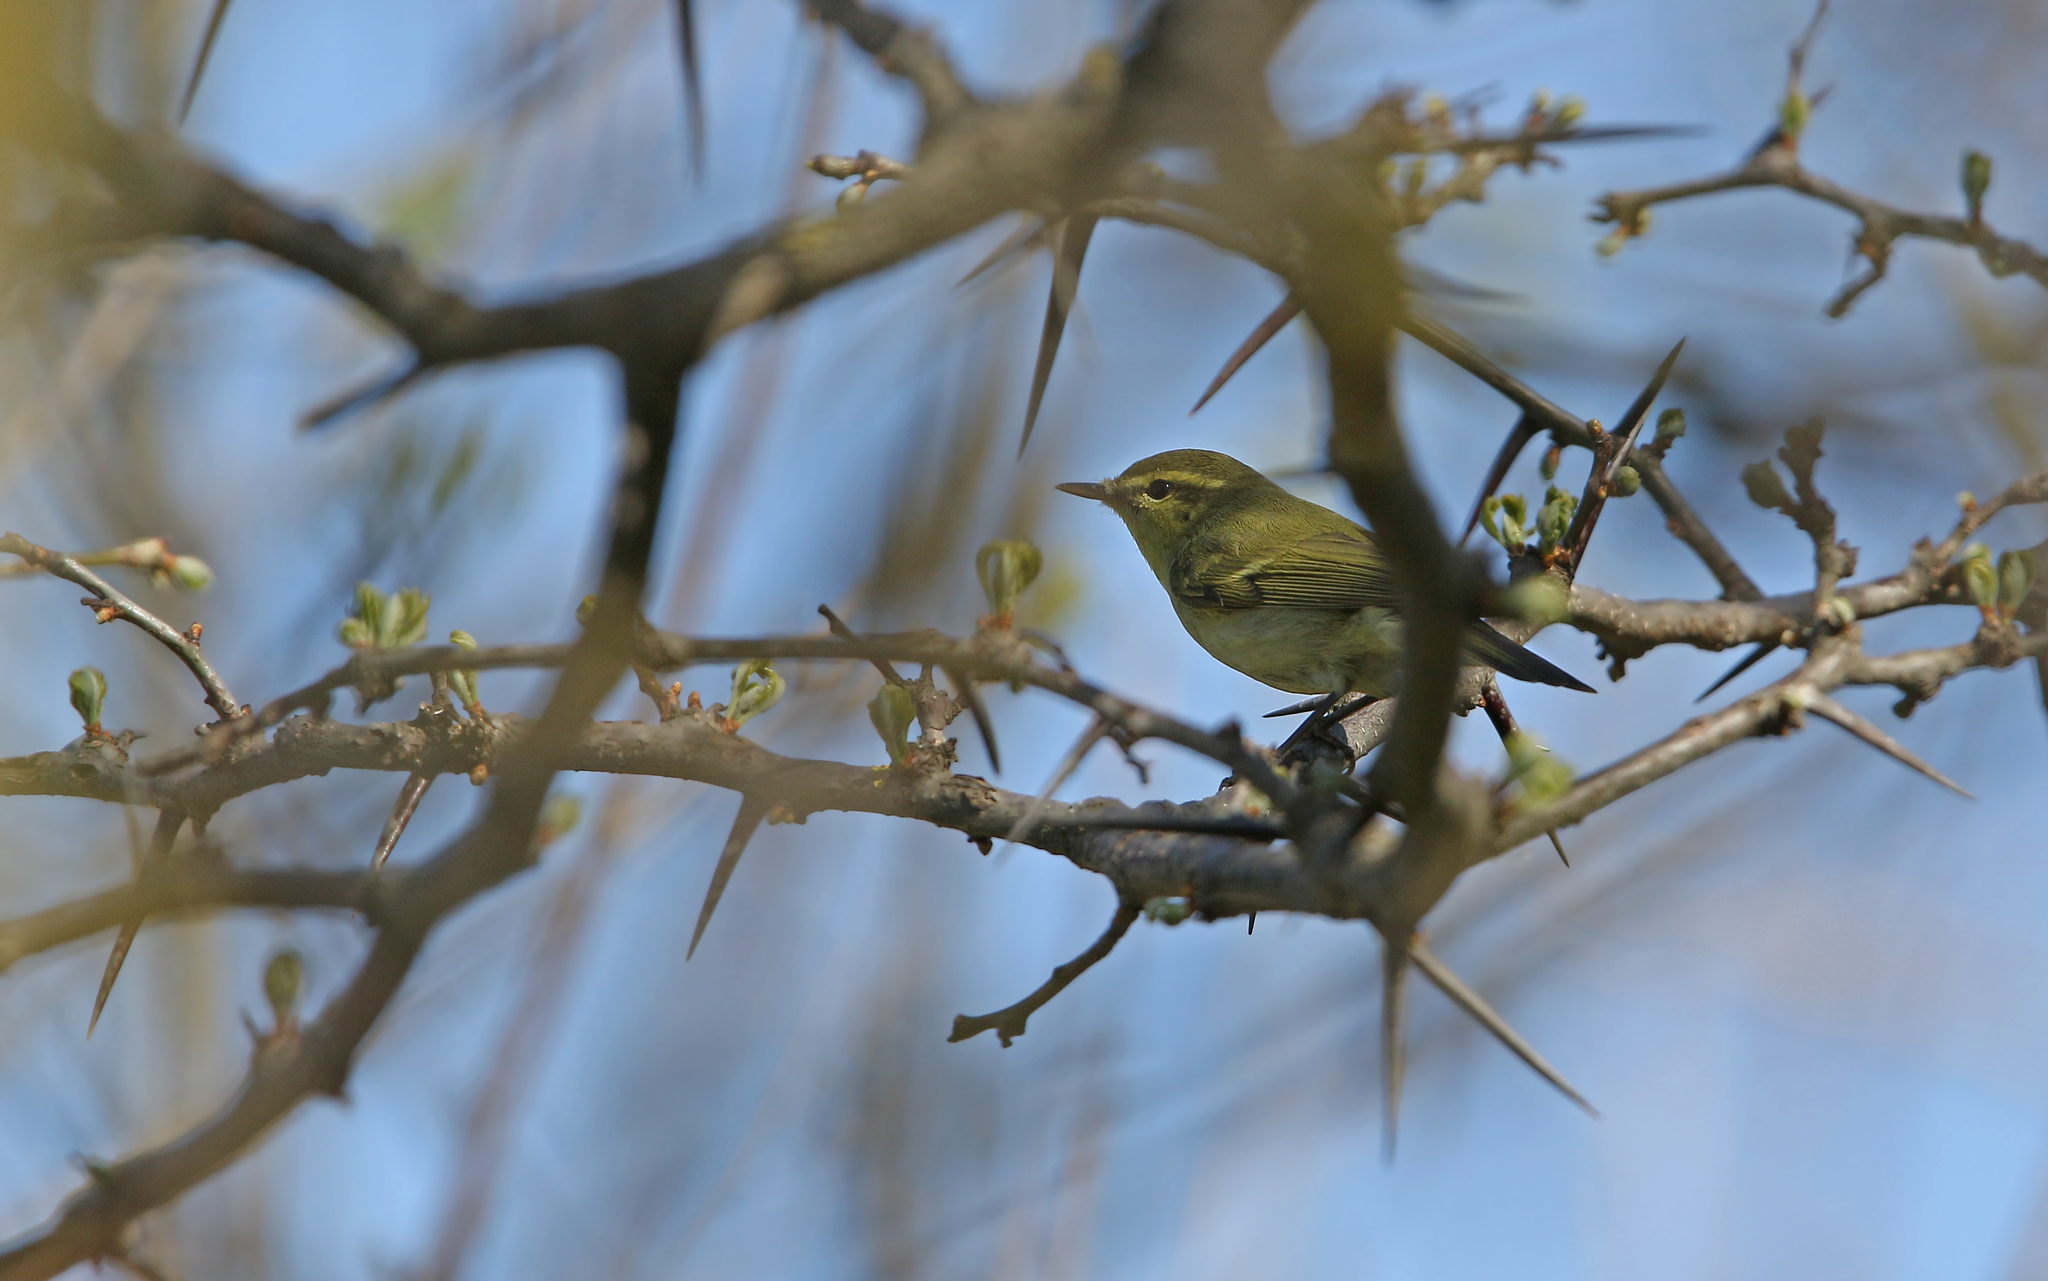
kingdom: Animalia
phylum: Chordata
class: Aves
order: Passeriformes
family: Phylloscopidae
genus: Phylloscopus
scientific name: Phylloscopus nitidus
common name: Green warbler
